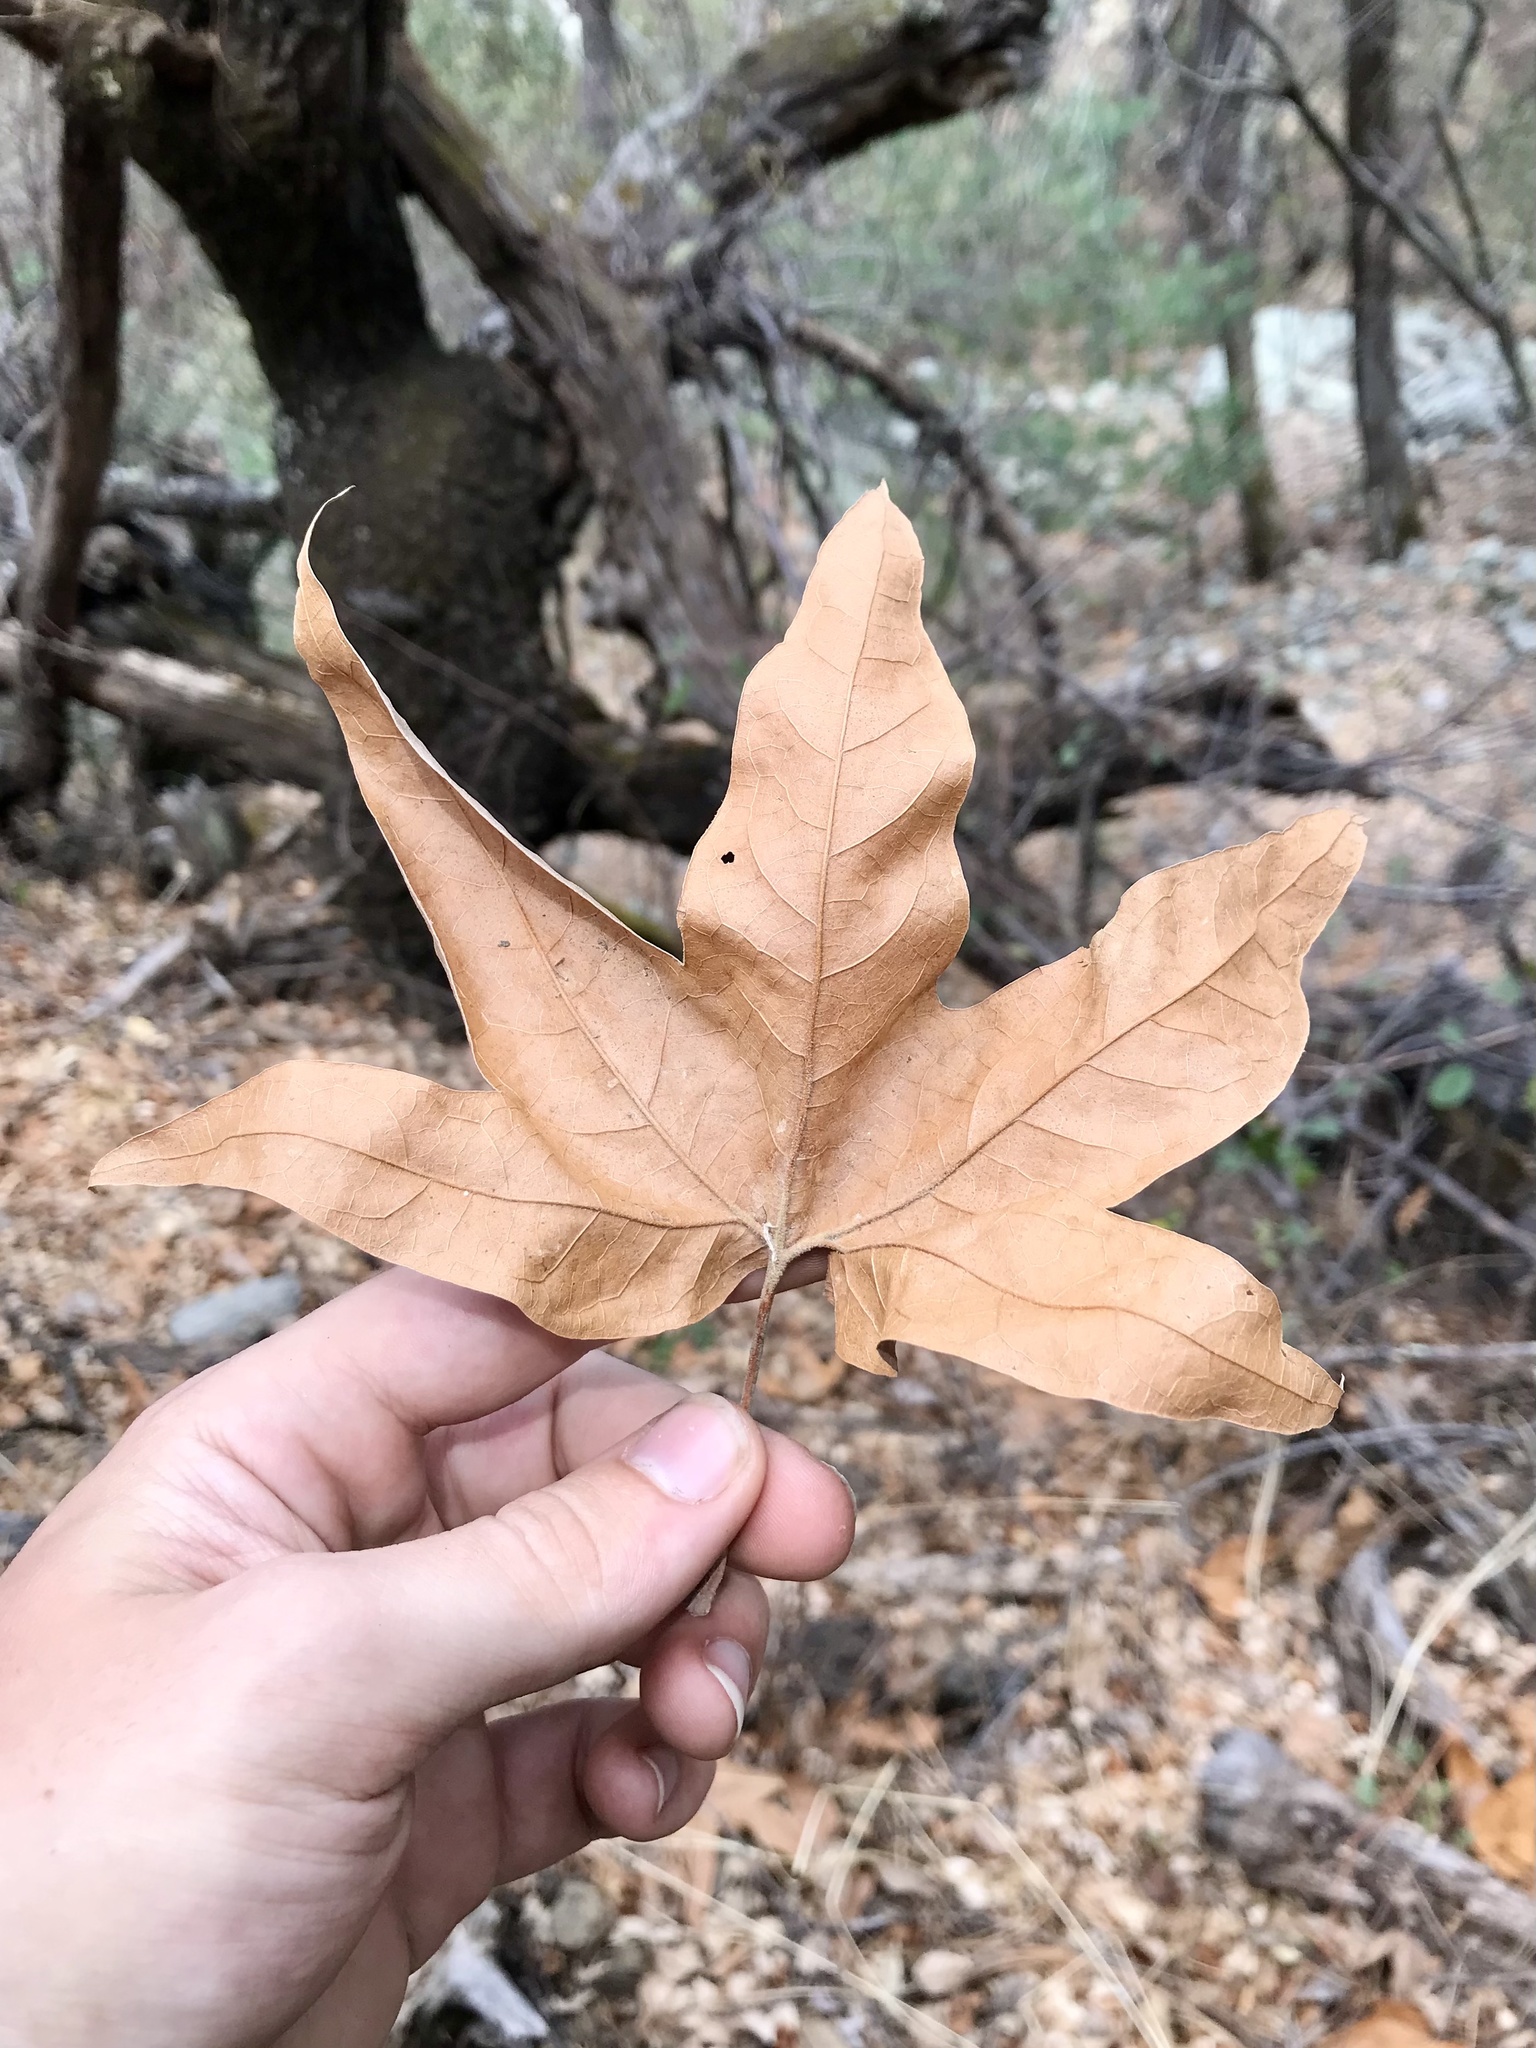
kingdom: Plantae
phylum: Tracheophyta
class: Magnoliopsida
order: Proteales
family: Platanaceae
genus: Platanus
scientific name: Platanus wrightii
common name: Arizona sycamore
